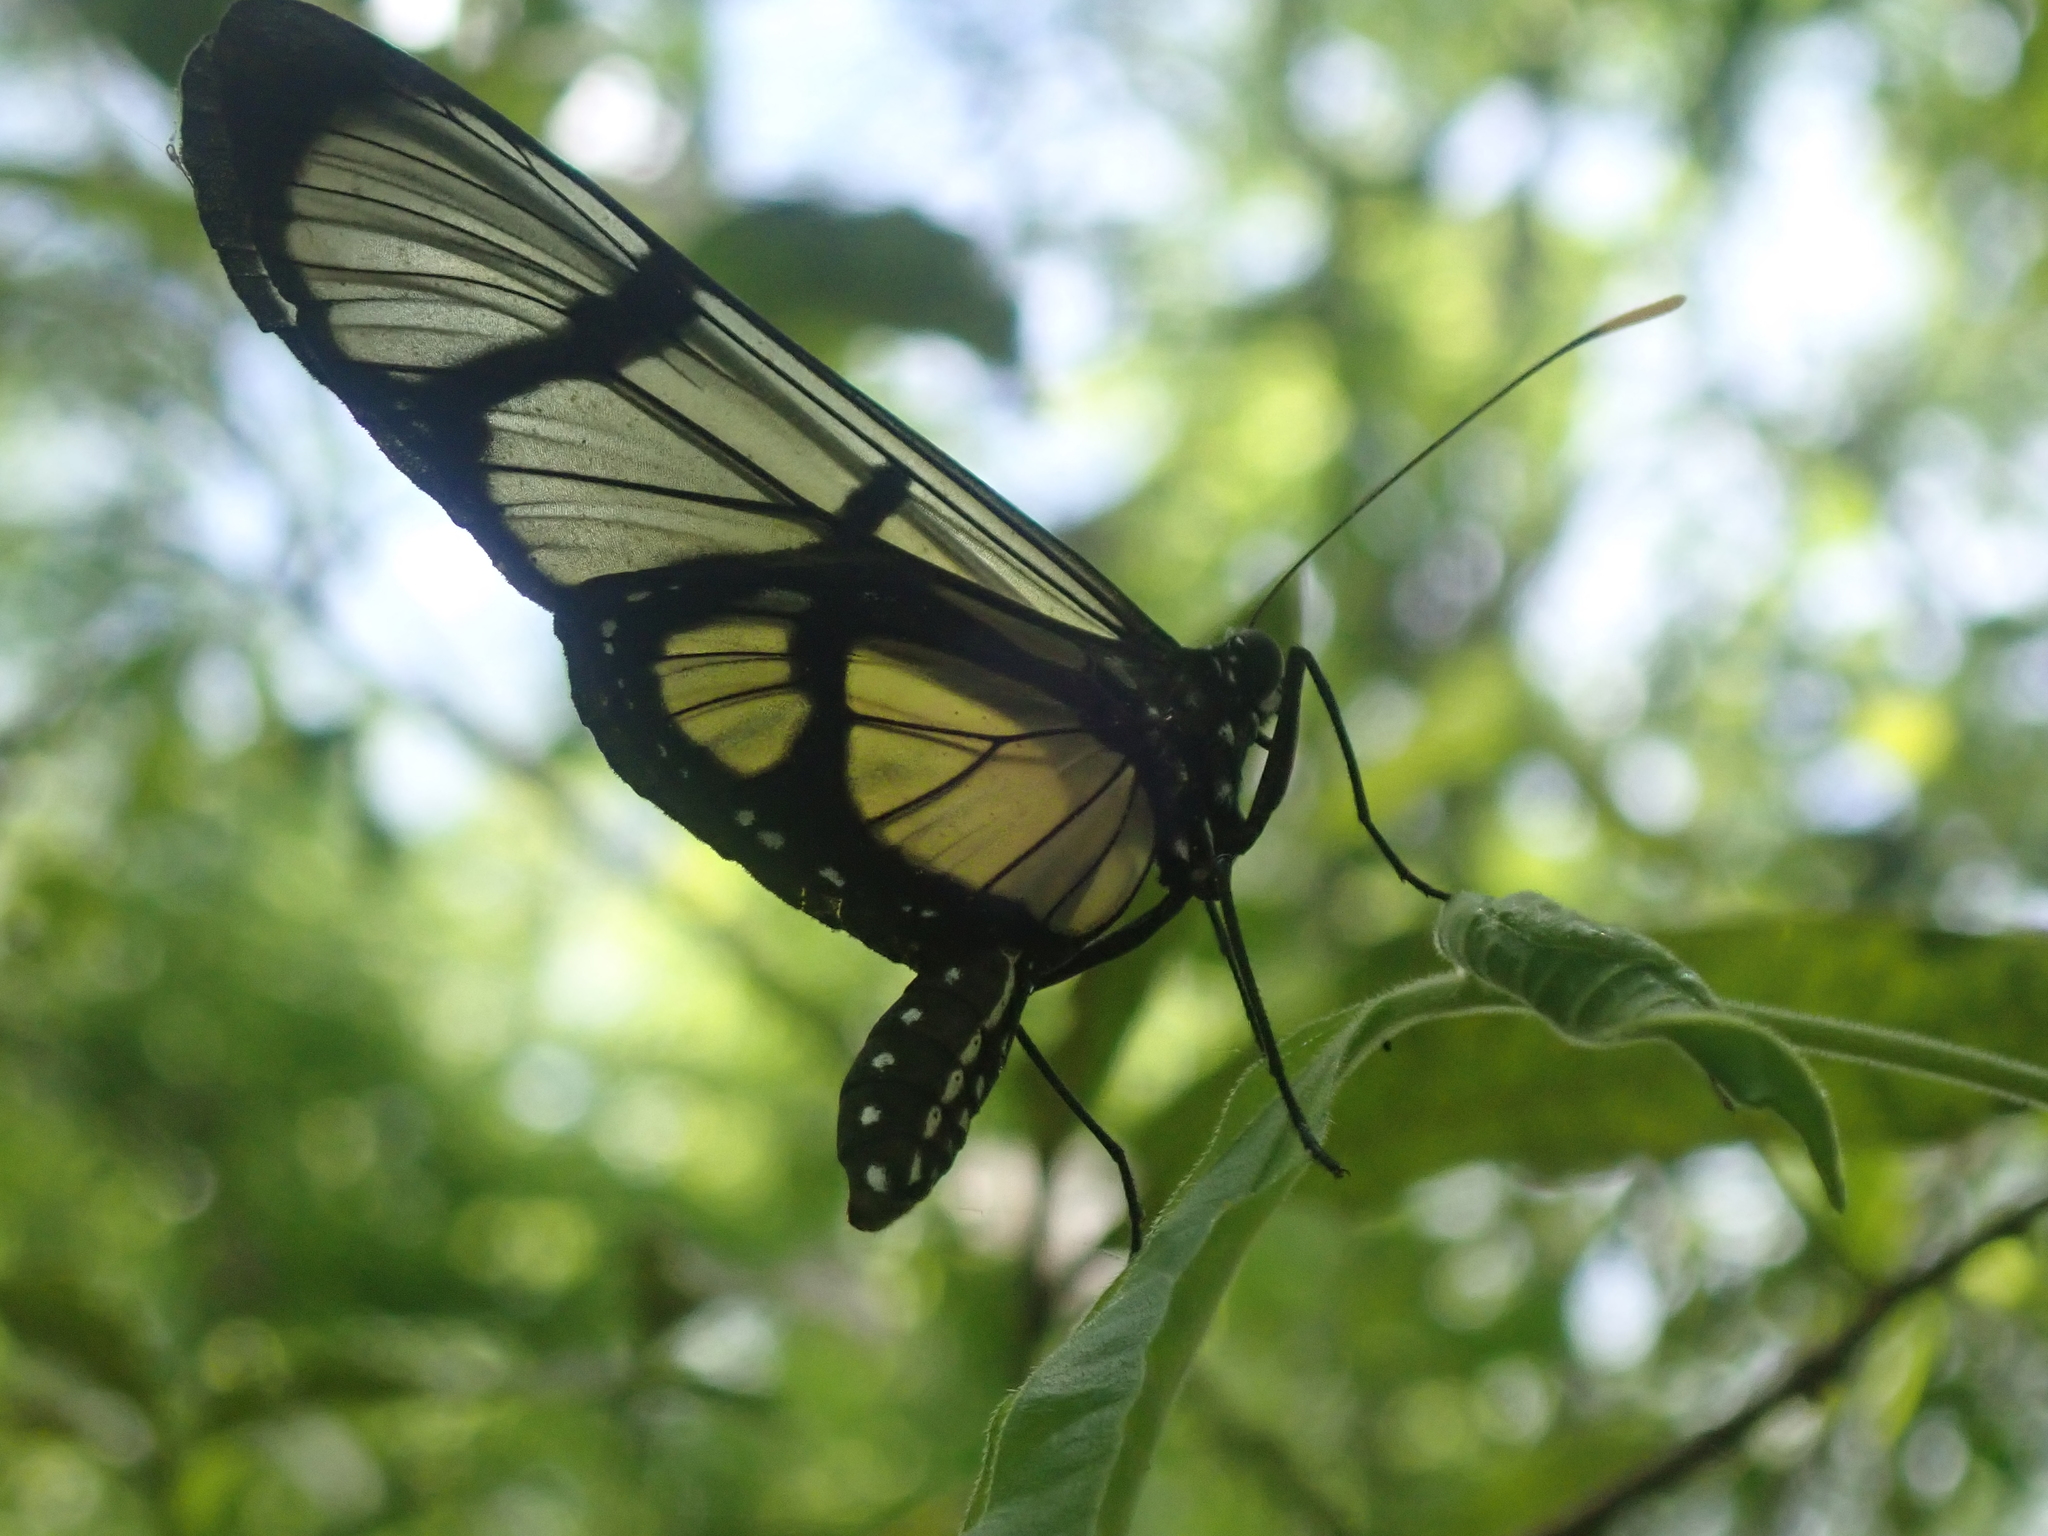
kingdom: Animalia
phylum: Arthropoda
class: Insecta
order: Lepidoptera
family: Nymphalidae
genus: Methona
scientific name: Methona confusa
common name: Confusa tigerwing
